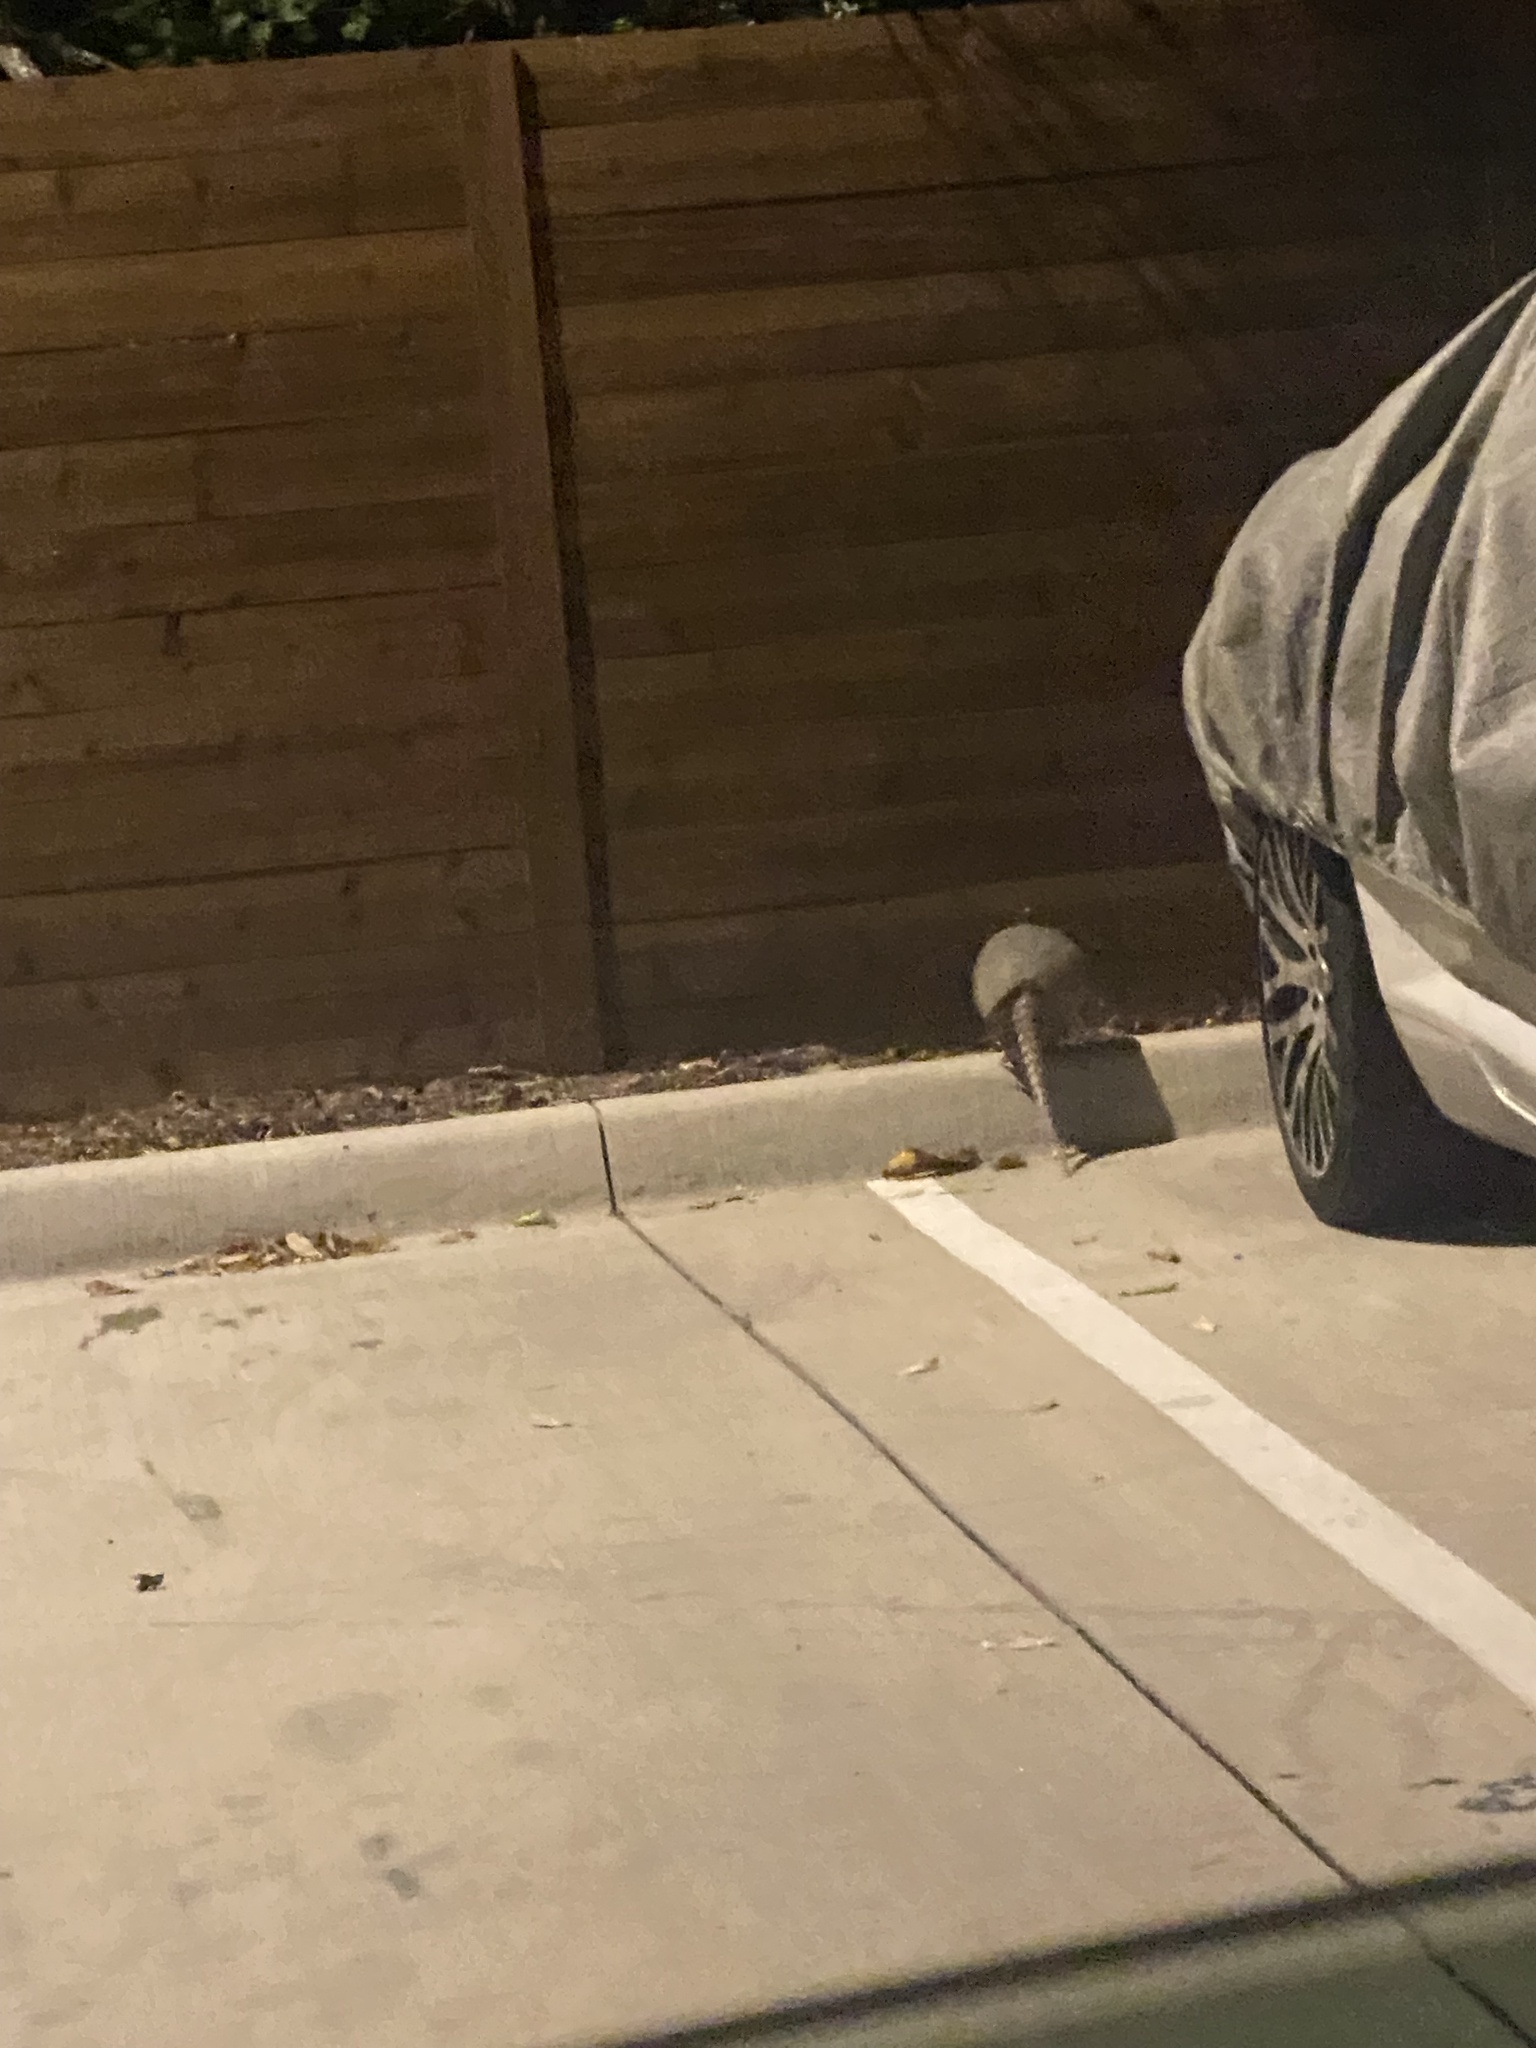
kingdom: Animalia
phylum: Chordata
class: Mammalia
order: Cingulata
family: Dasypodidae
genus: Dasypus
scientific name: Dasypus novemcinctus
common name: Nine-banded armadillo
